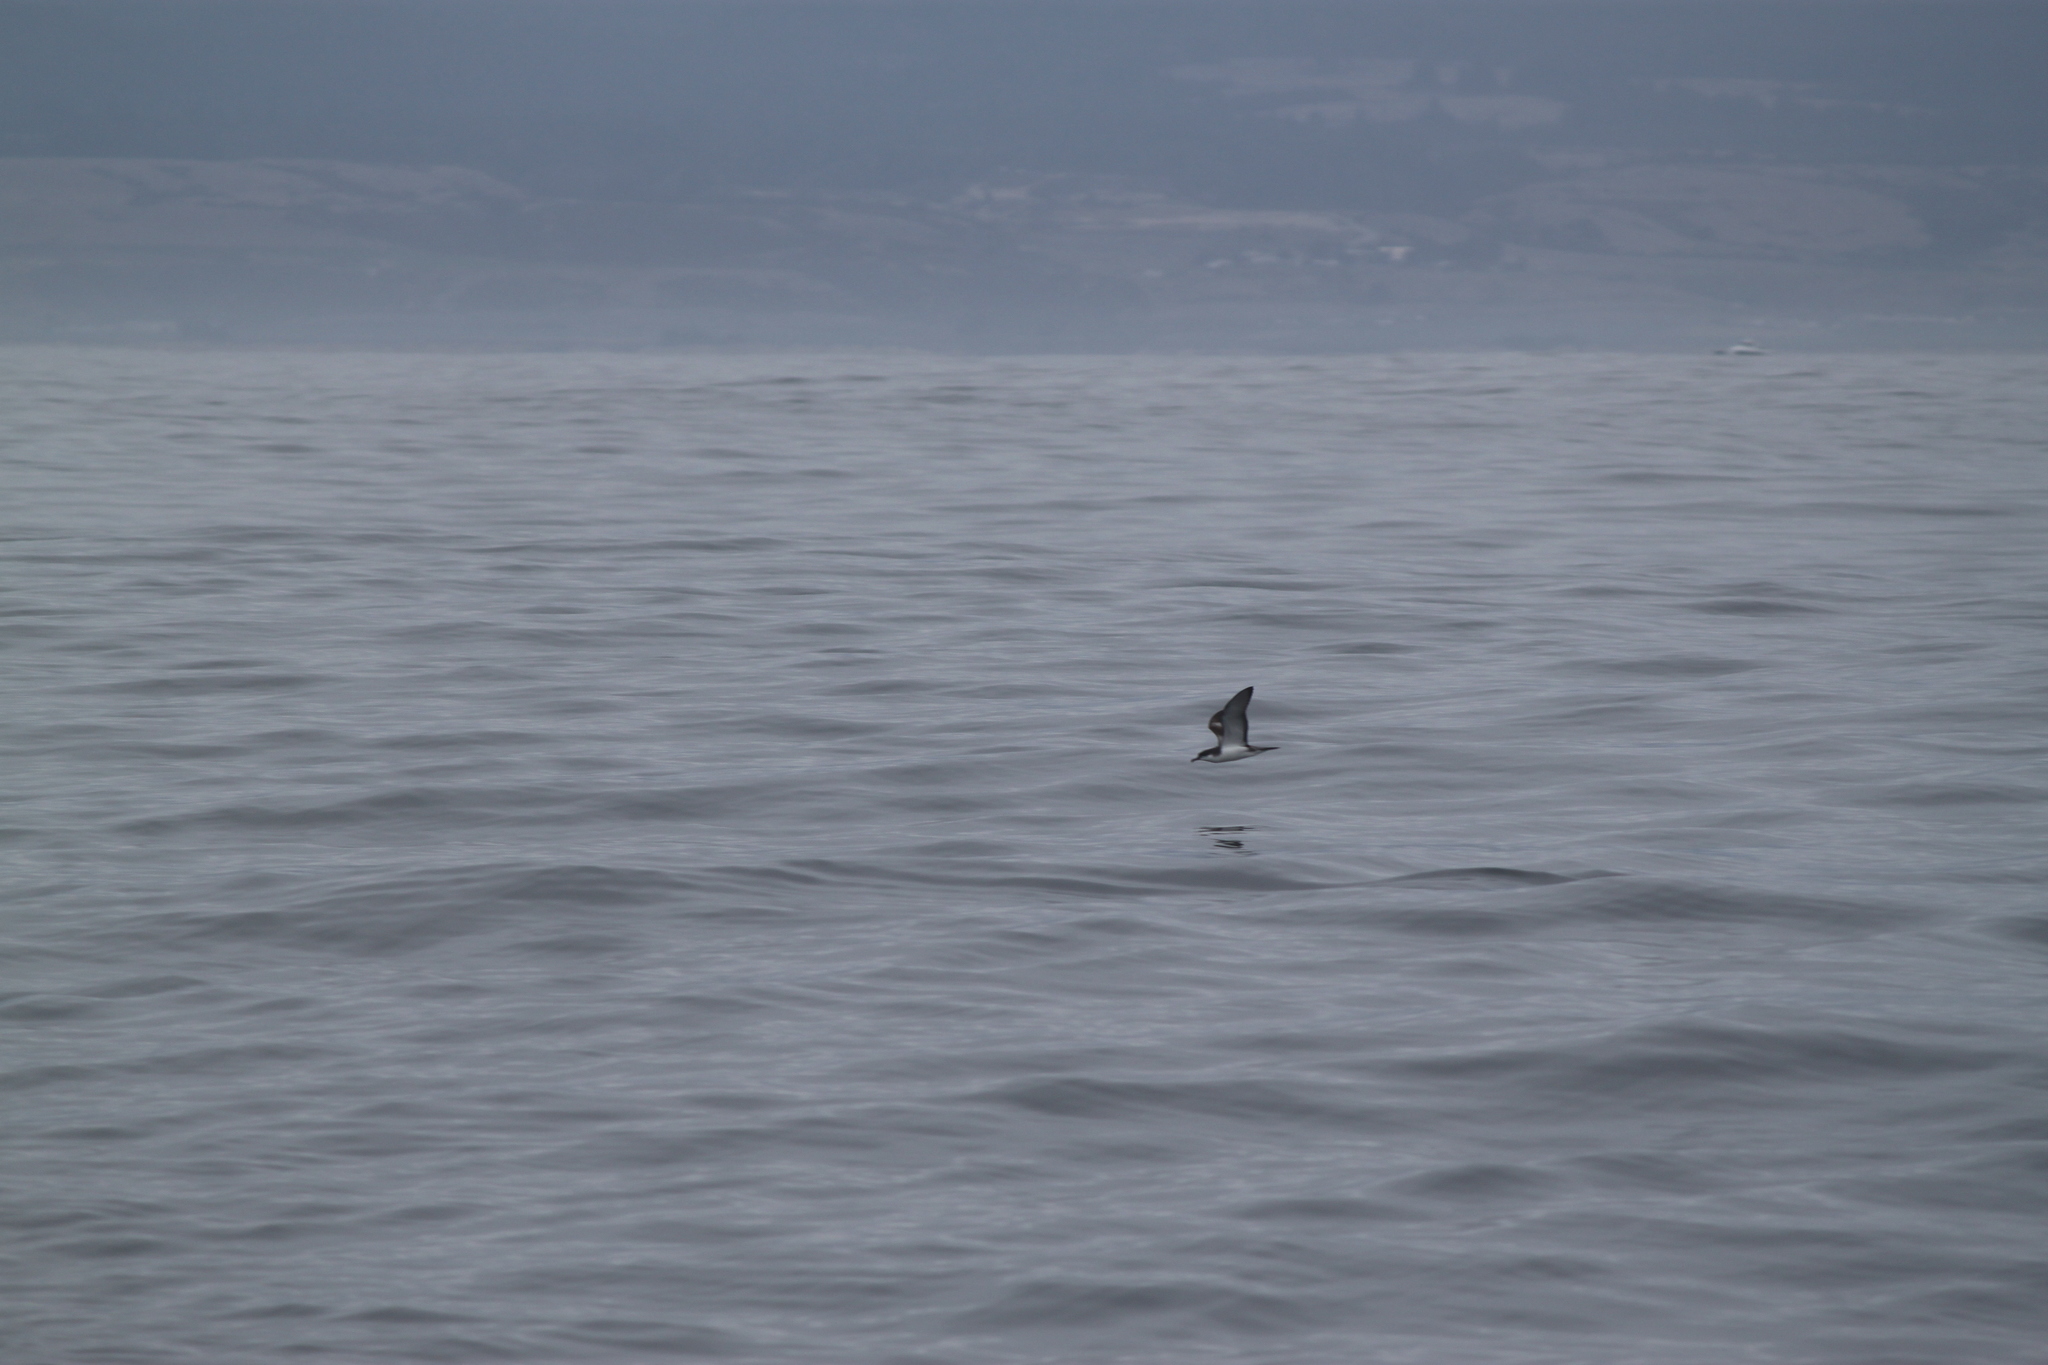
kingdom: Animalia
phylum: Chordata
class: Aves
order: Procellariiformes
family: Procellariidae
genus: Puffinus
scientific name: Puffinus bulleri
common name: Buller's shearwater
